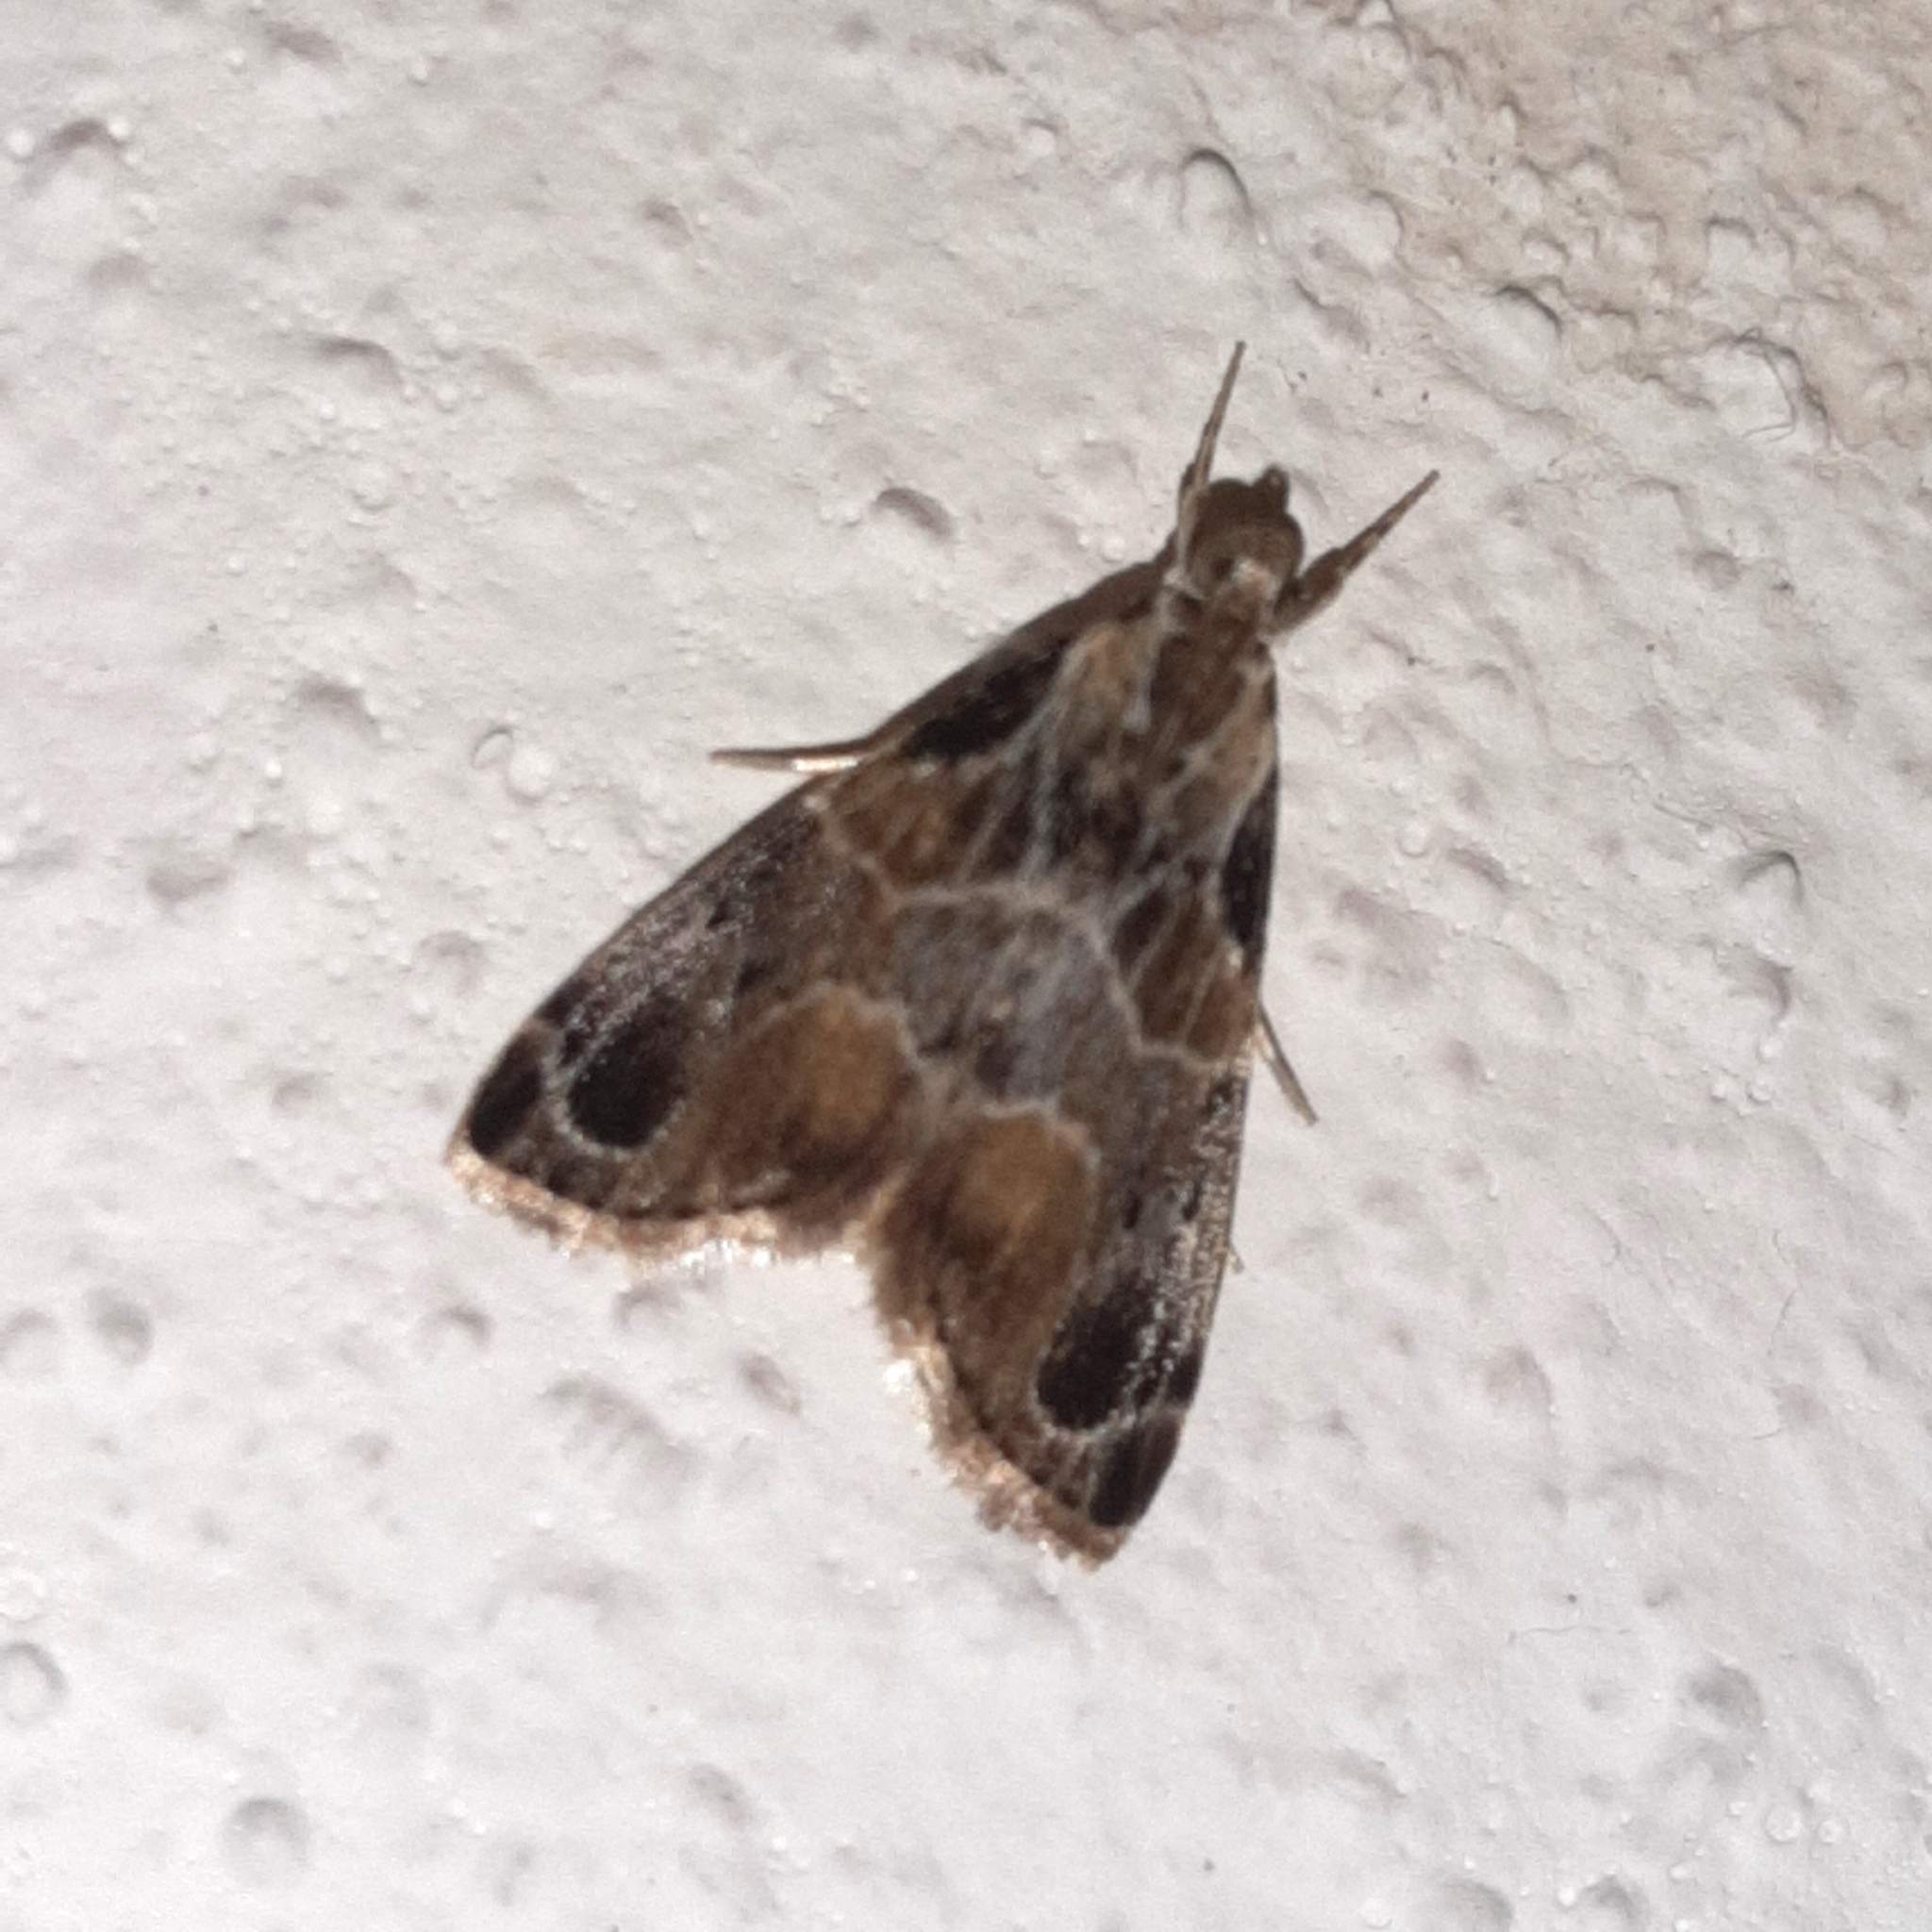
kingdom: Animalia
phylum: Arthropoda
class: Insecta
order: Lepidoptera
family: Crambidae
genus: Eupoca
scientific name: Eupoca bifascialis
